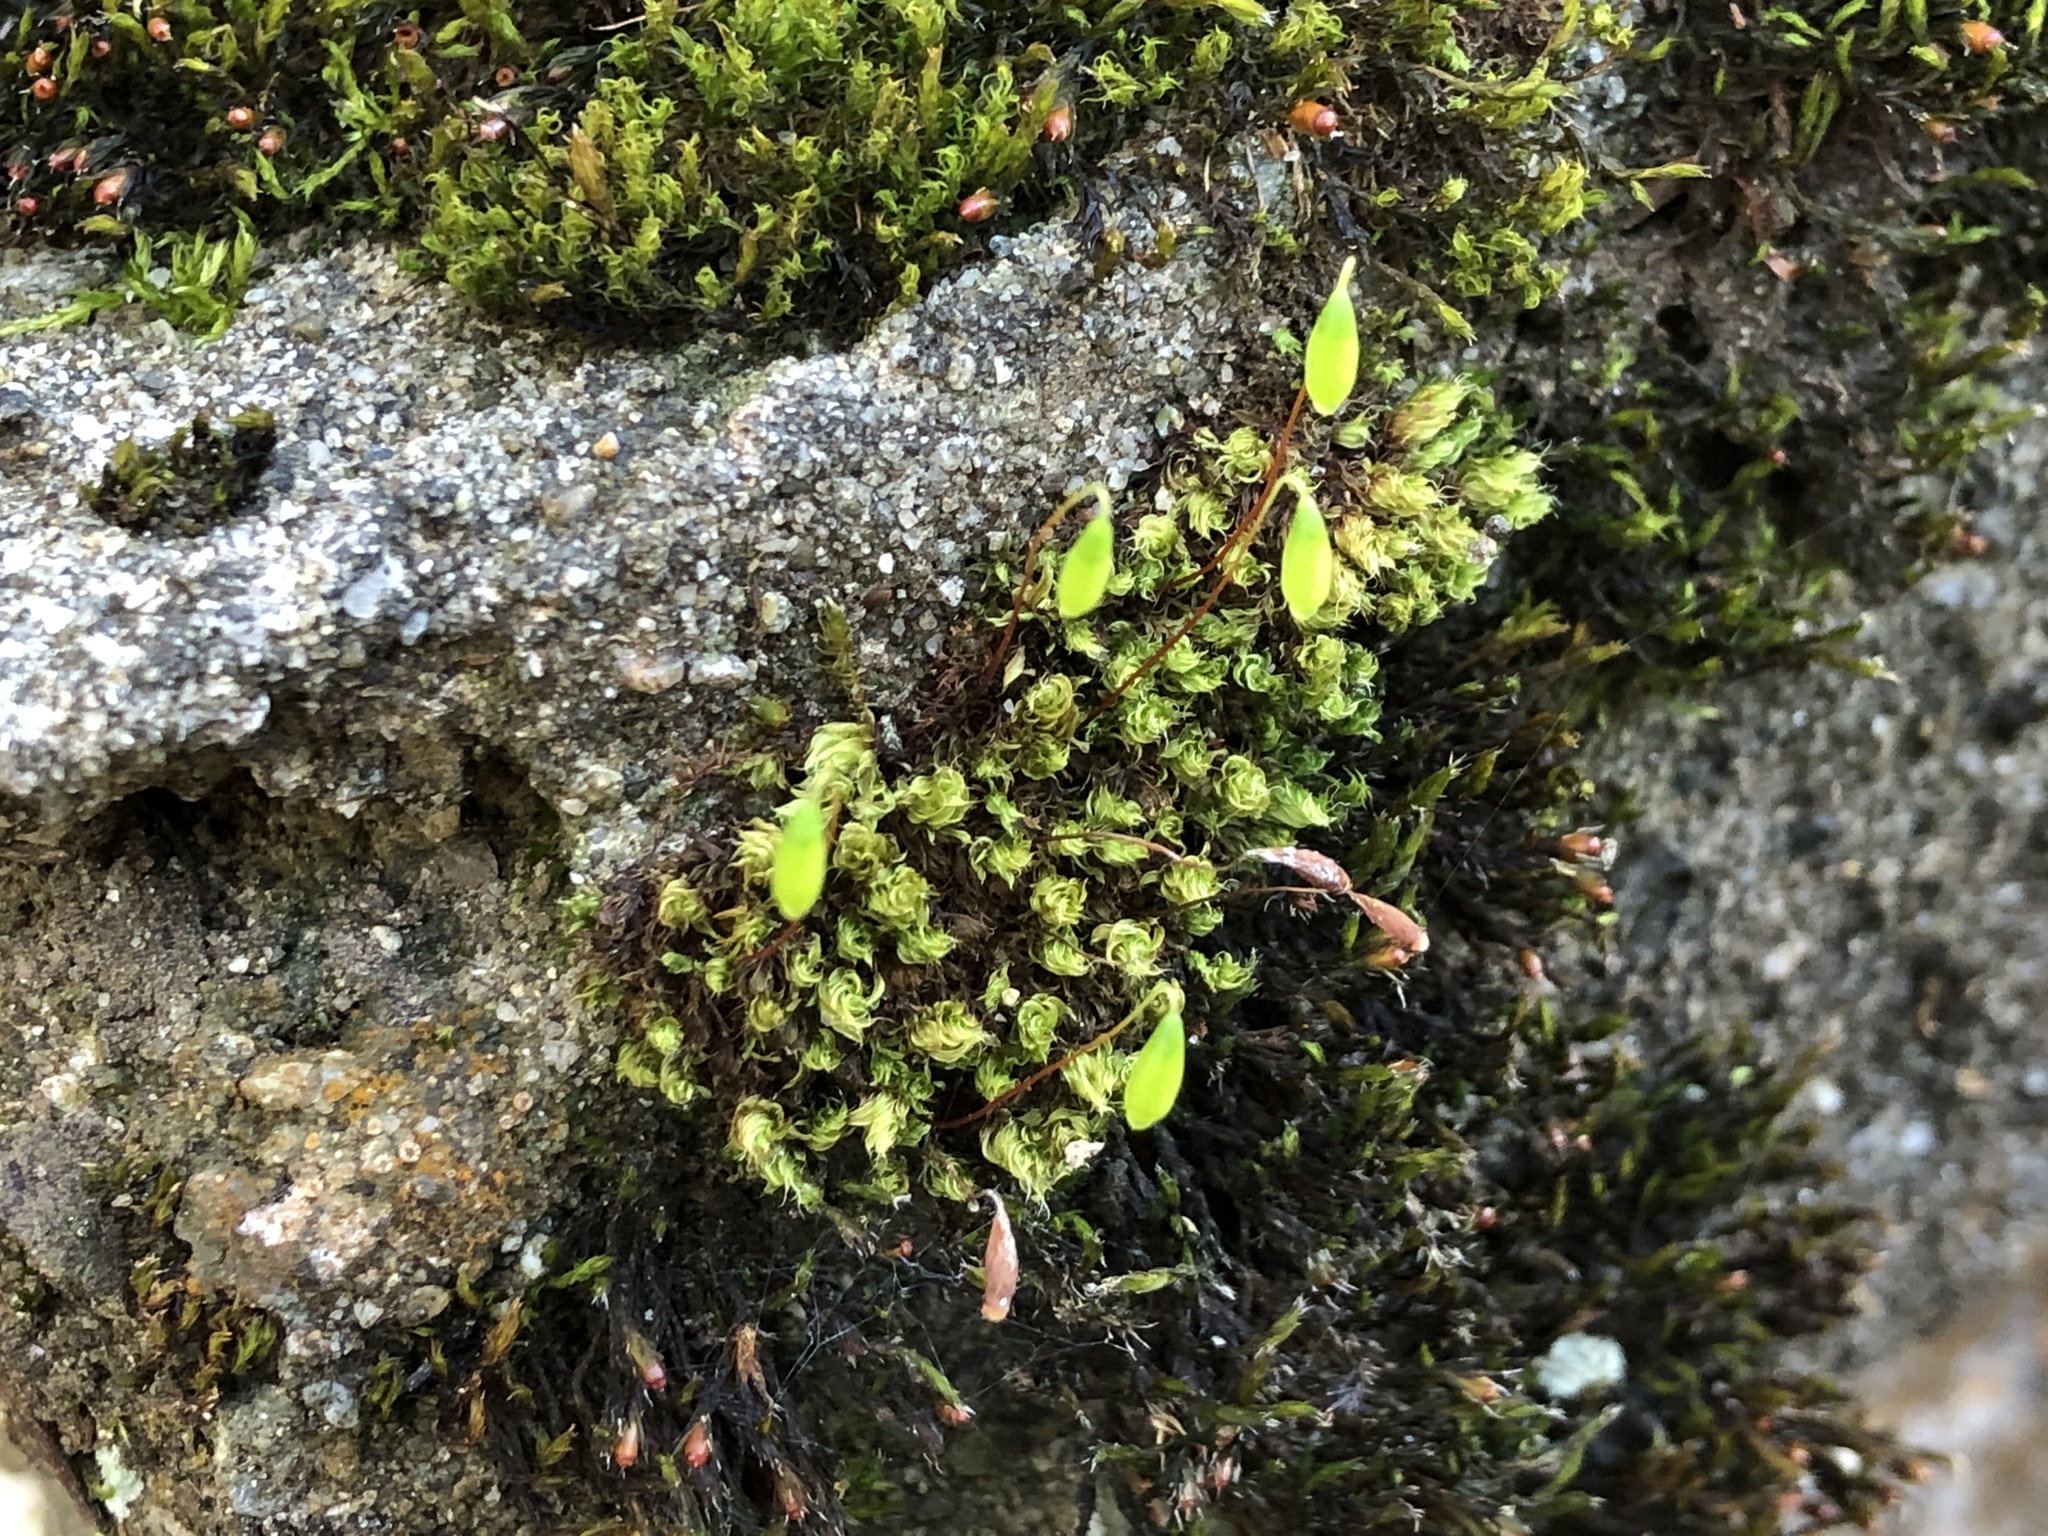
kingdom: Plantae
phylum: Bryophyta
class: Bryopsida
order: Bryales
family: Bryaceae
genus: Rosulabryum
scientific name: Rosulabryum capillare
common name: Capillary thread-moss
